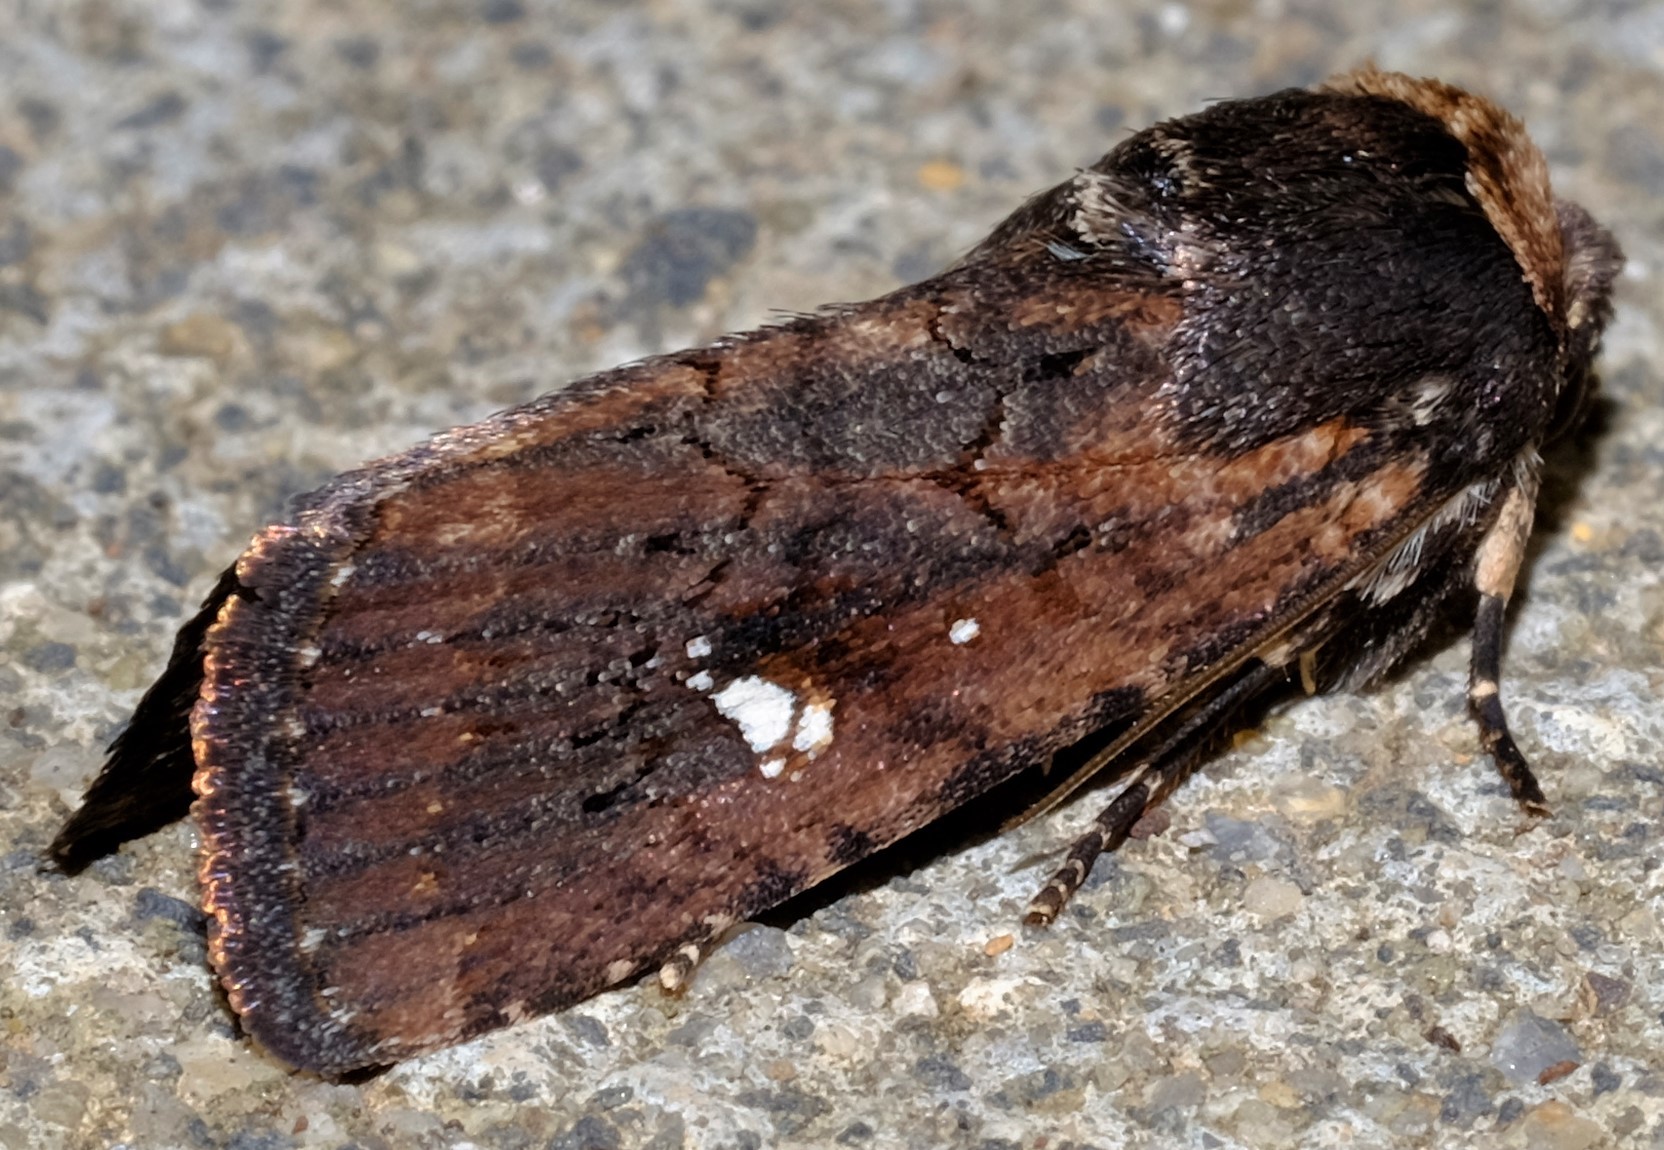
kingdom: Animalia
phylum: Arthropoda
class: Insecta
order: Lepidoptera
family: Noctuidae
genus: Amphipyrine
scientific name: Amphipyrine
